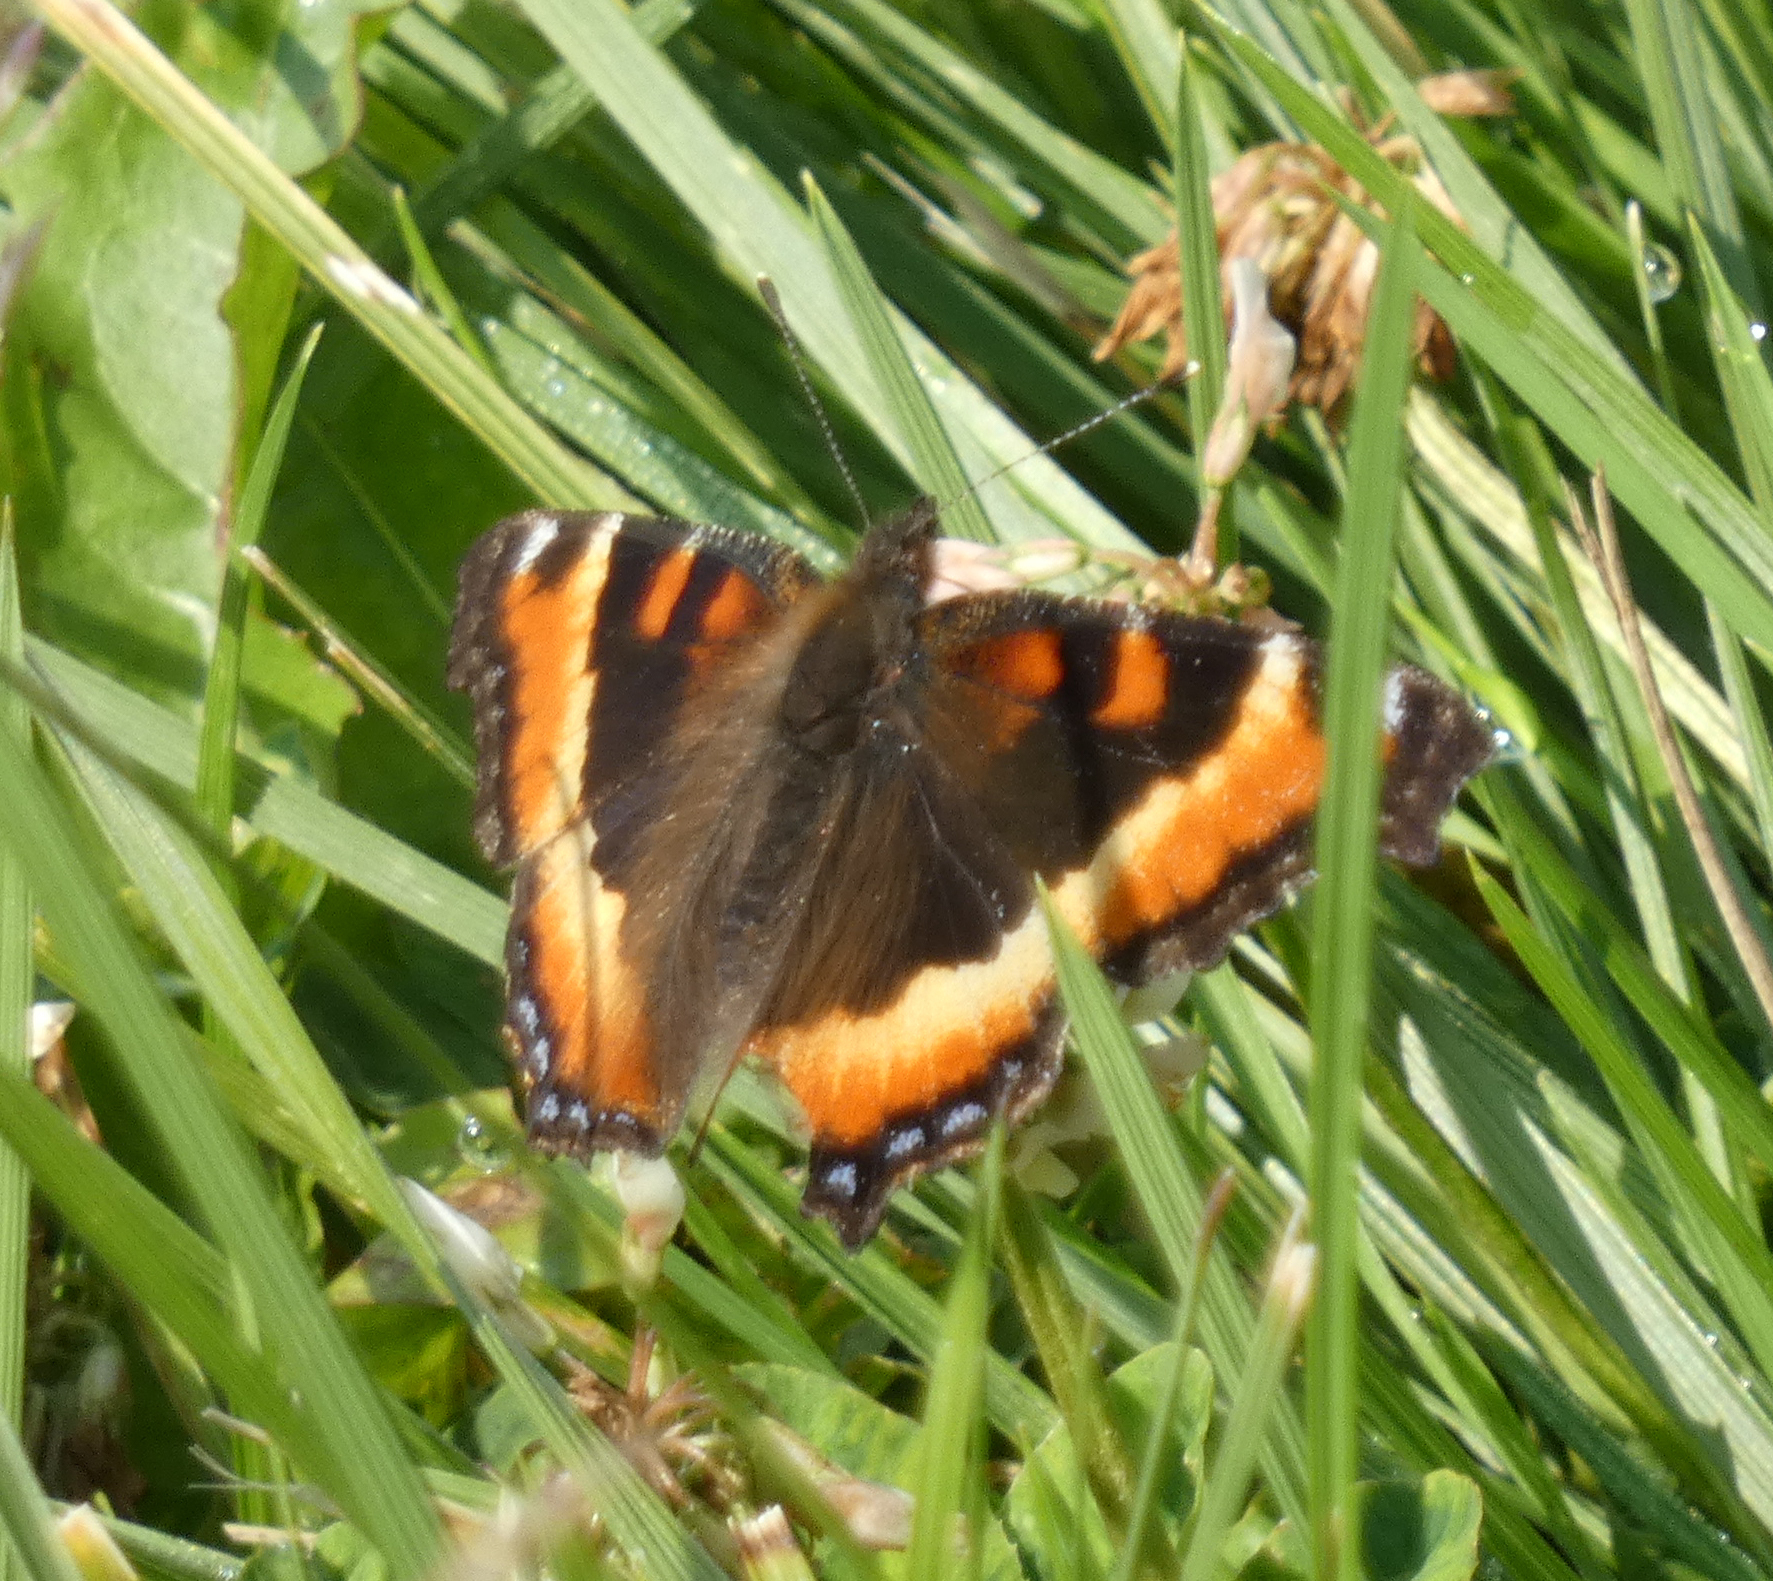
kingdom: Animalia
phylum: Arthropoda
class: Insecta
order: Lepidoptera
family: Nymphalidae
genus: Aglais
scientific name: Aglais milberti
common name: Milbert's tortoiseshell
